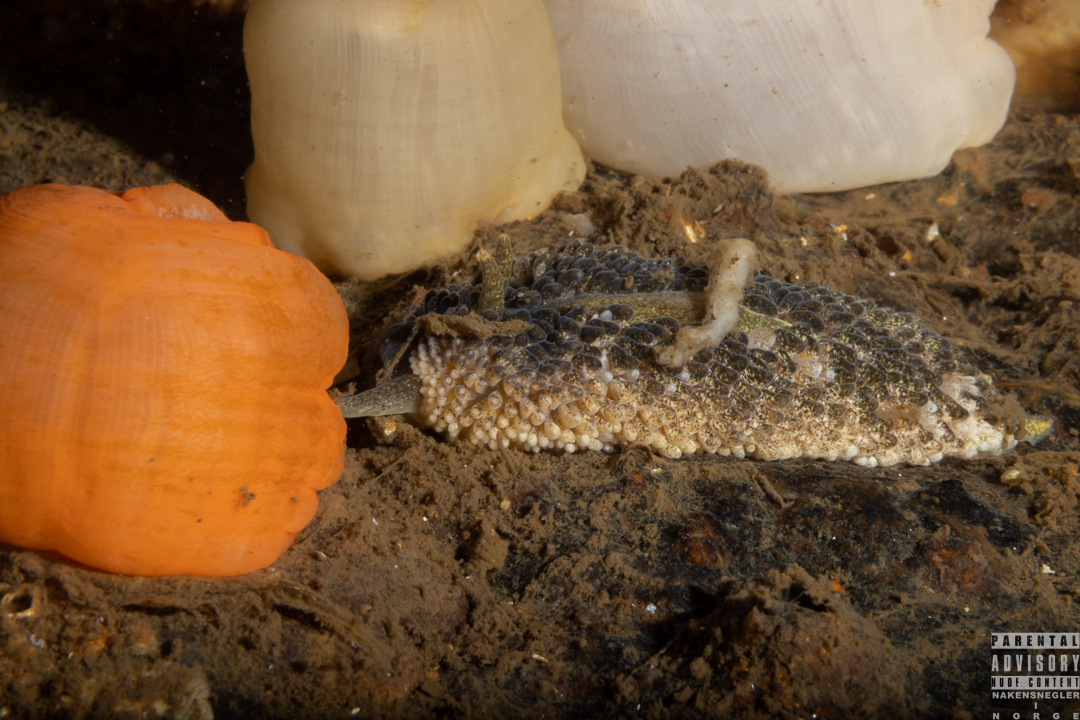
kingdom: Animalia
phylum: Mollusca
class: Gastropoda
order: Nudibranchia
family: Aeolidiidae
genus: Aeolidia
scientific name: Aeolidia papillosa
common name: Common grey sea slug
